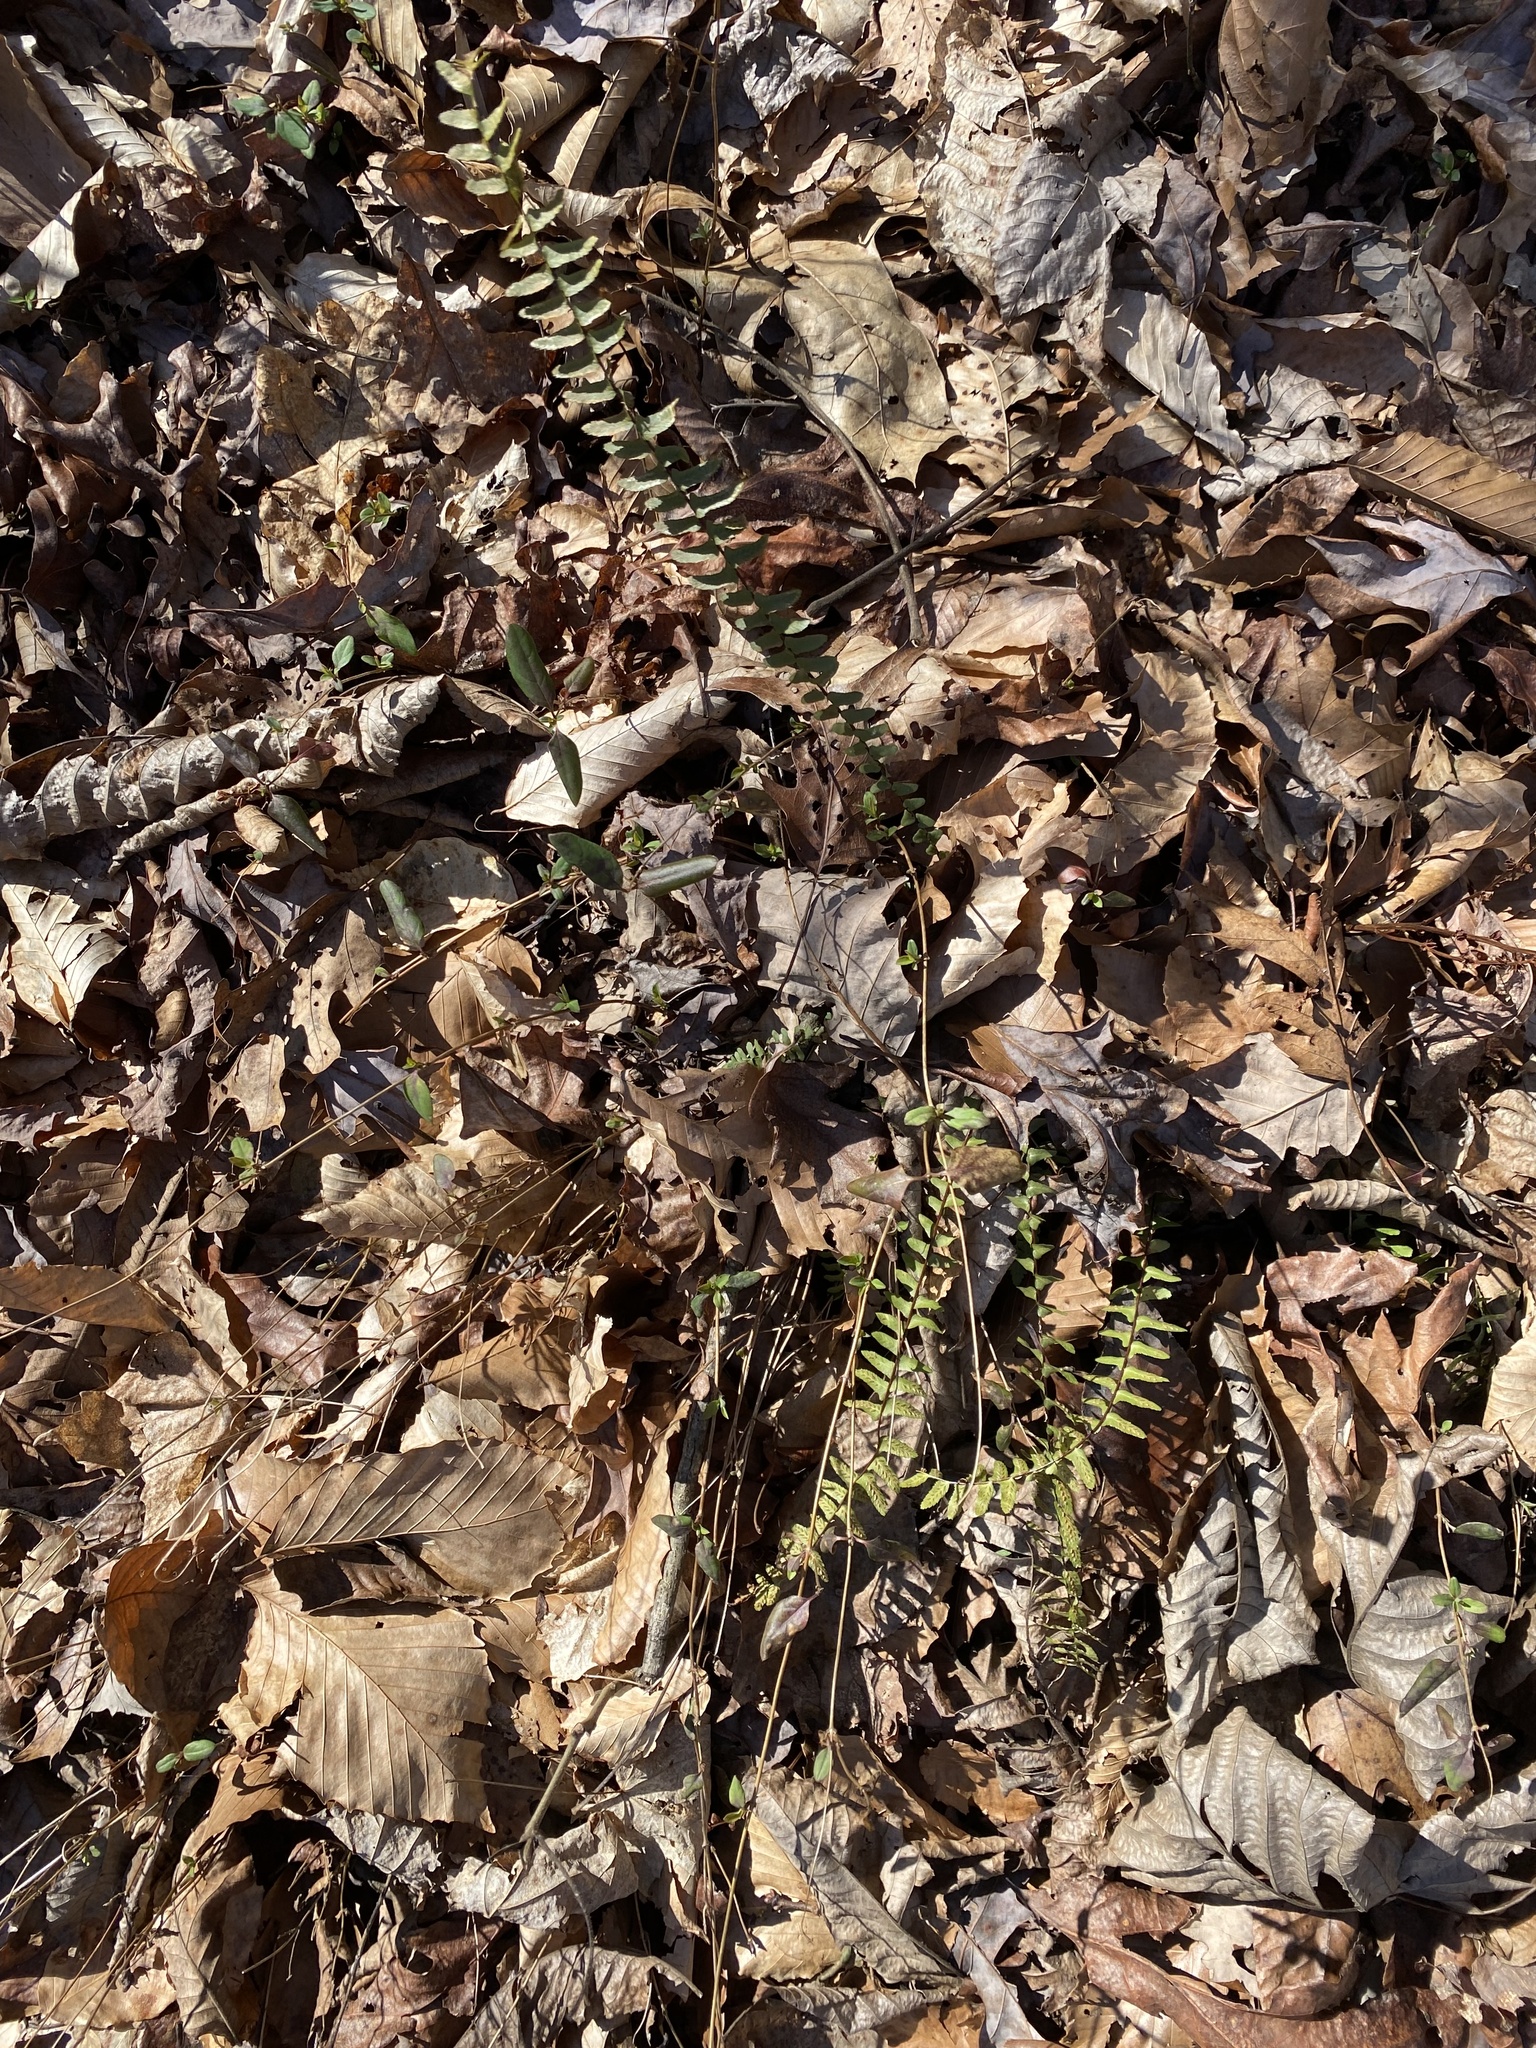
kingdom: Plantae
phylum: Tracheophyta
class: Polypodiopsida
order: Polypodiales
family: Aspleniaceae
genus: Asplenium
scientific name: Asplenium platyneuron
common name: Ebony spleenwort
